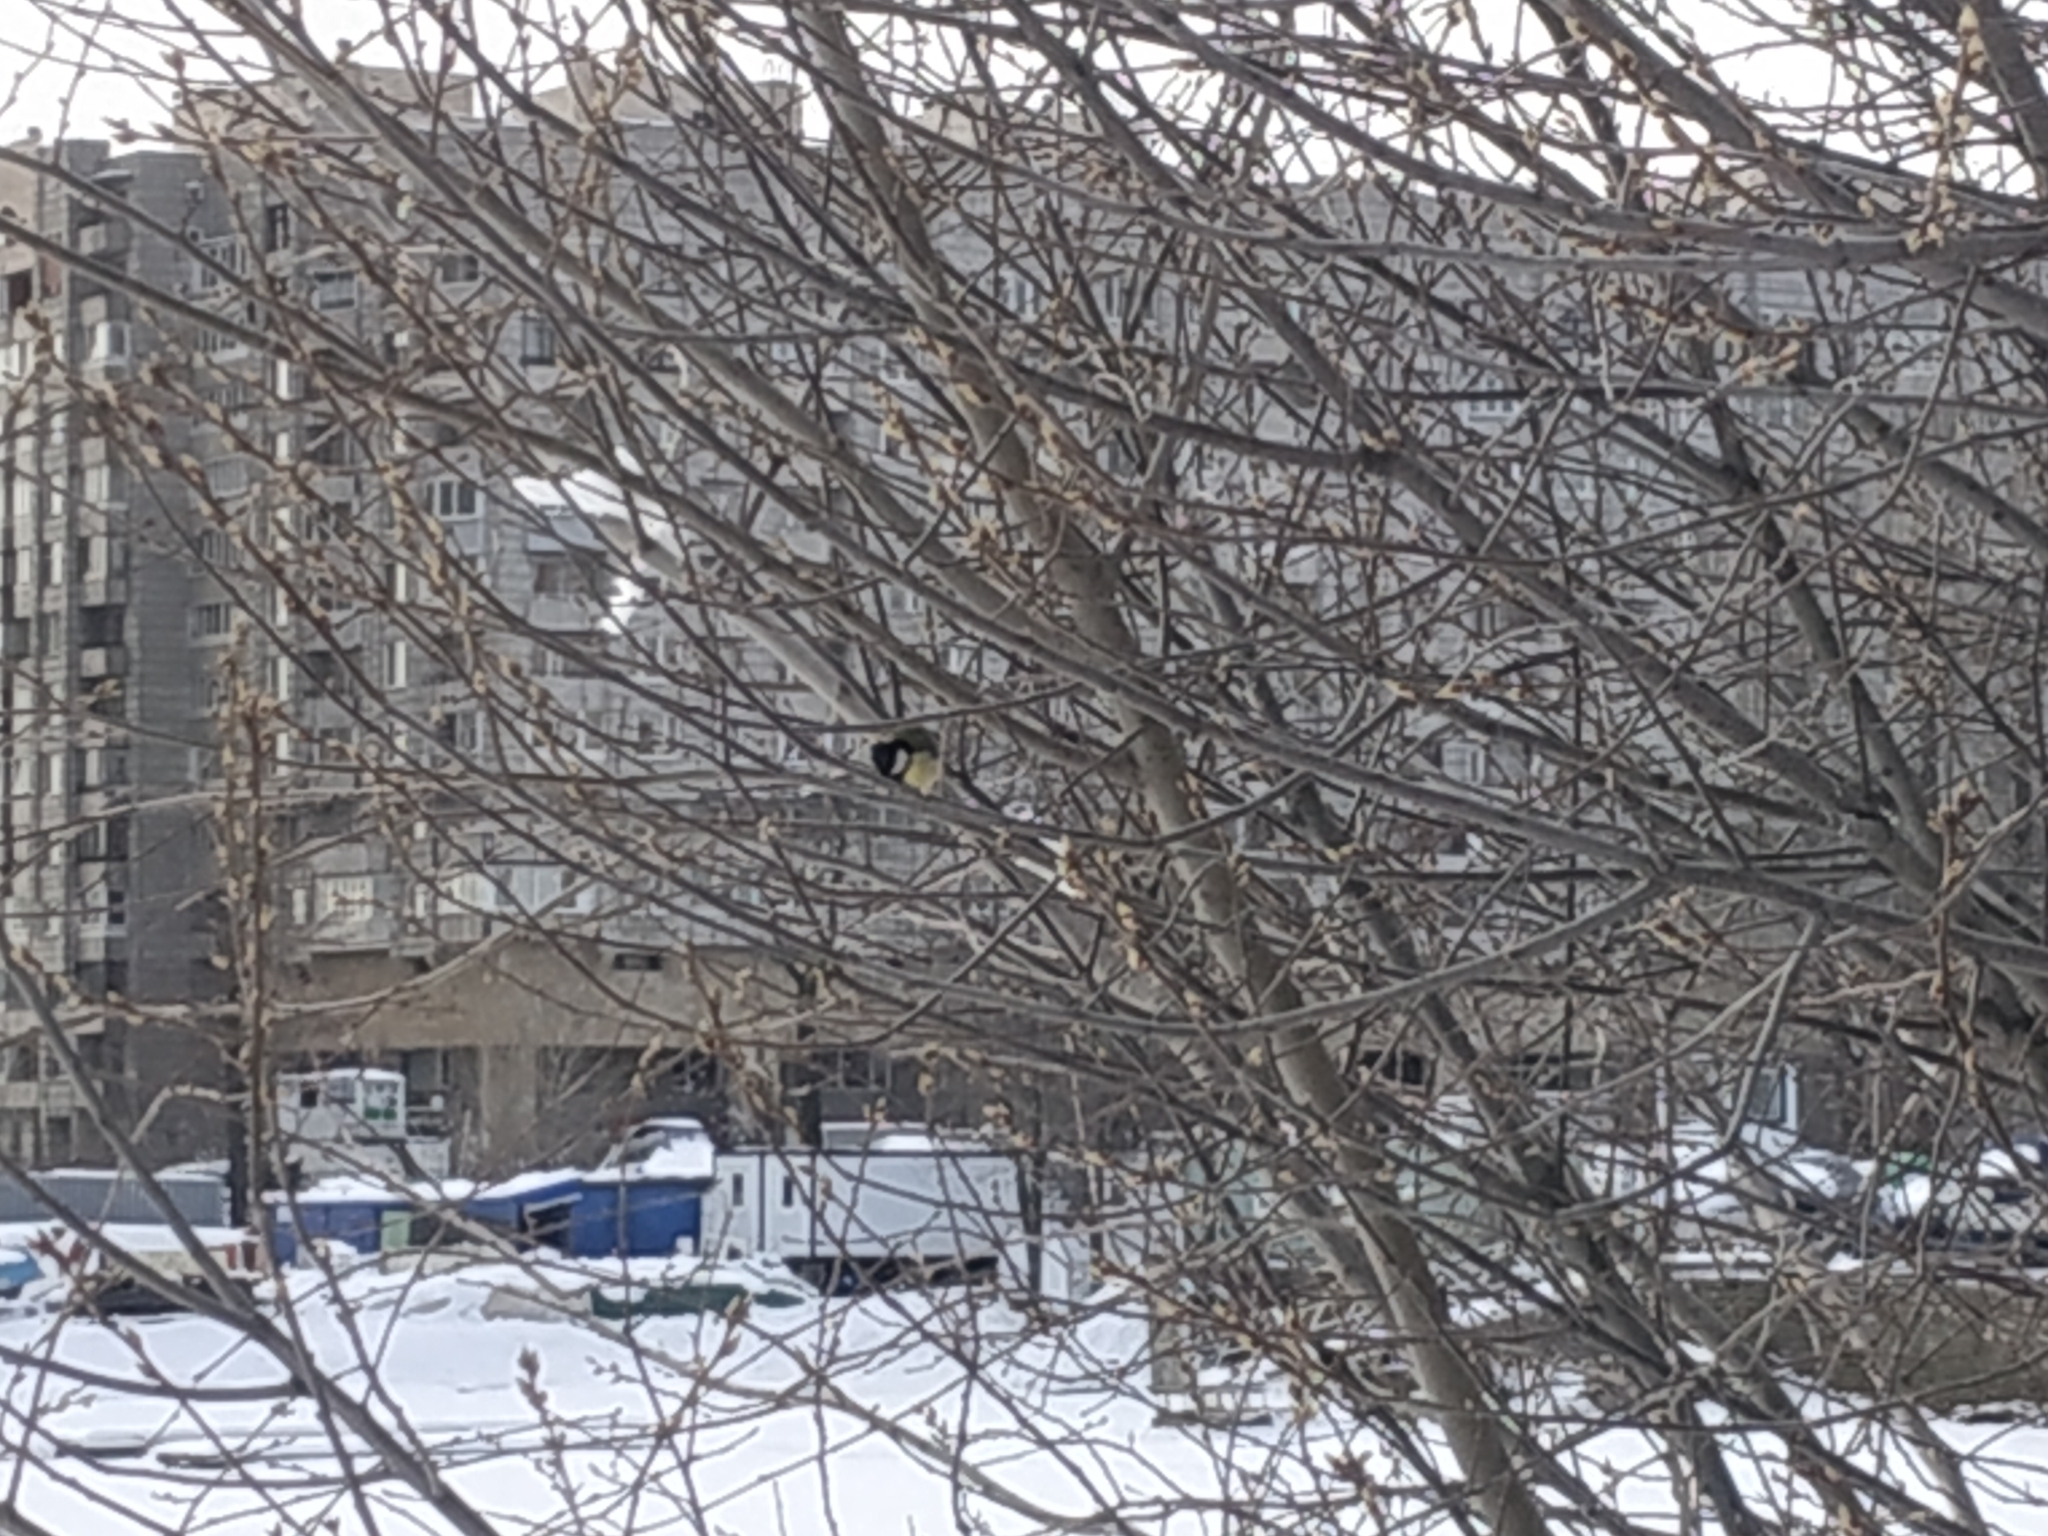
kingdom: Animalia
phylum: Chordata
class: Aves
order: Passeriformes
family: Paridae
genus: Parus
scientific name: Parus major
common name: Great tit
